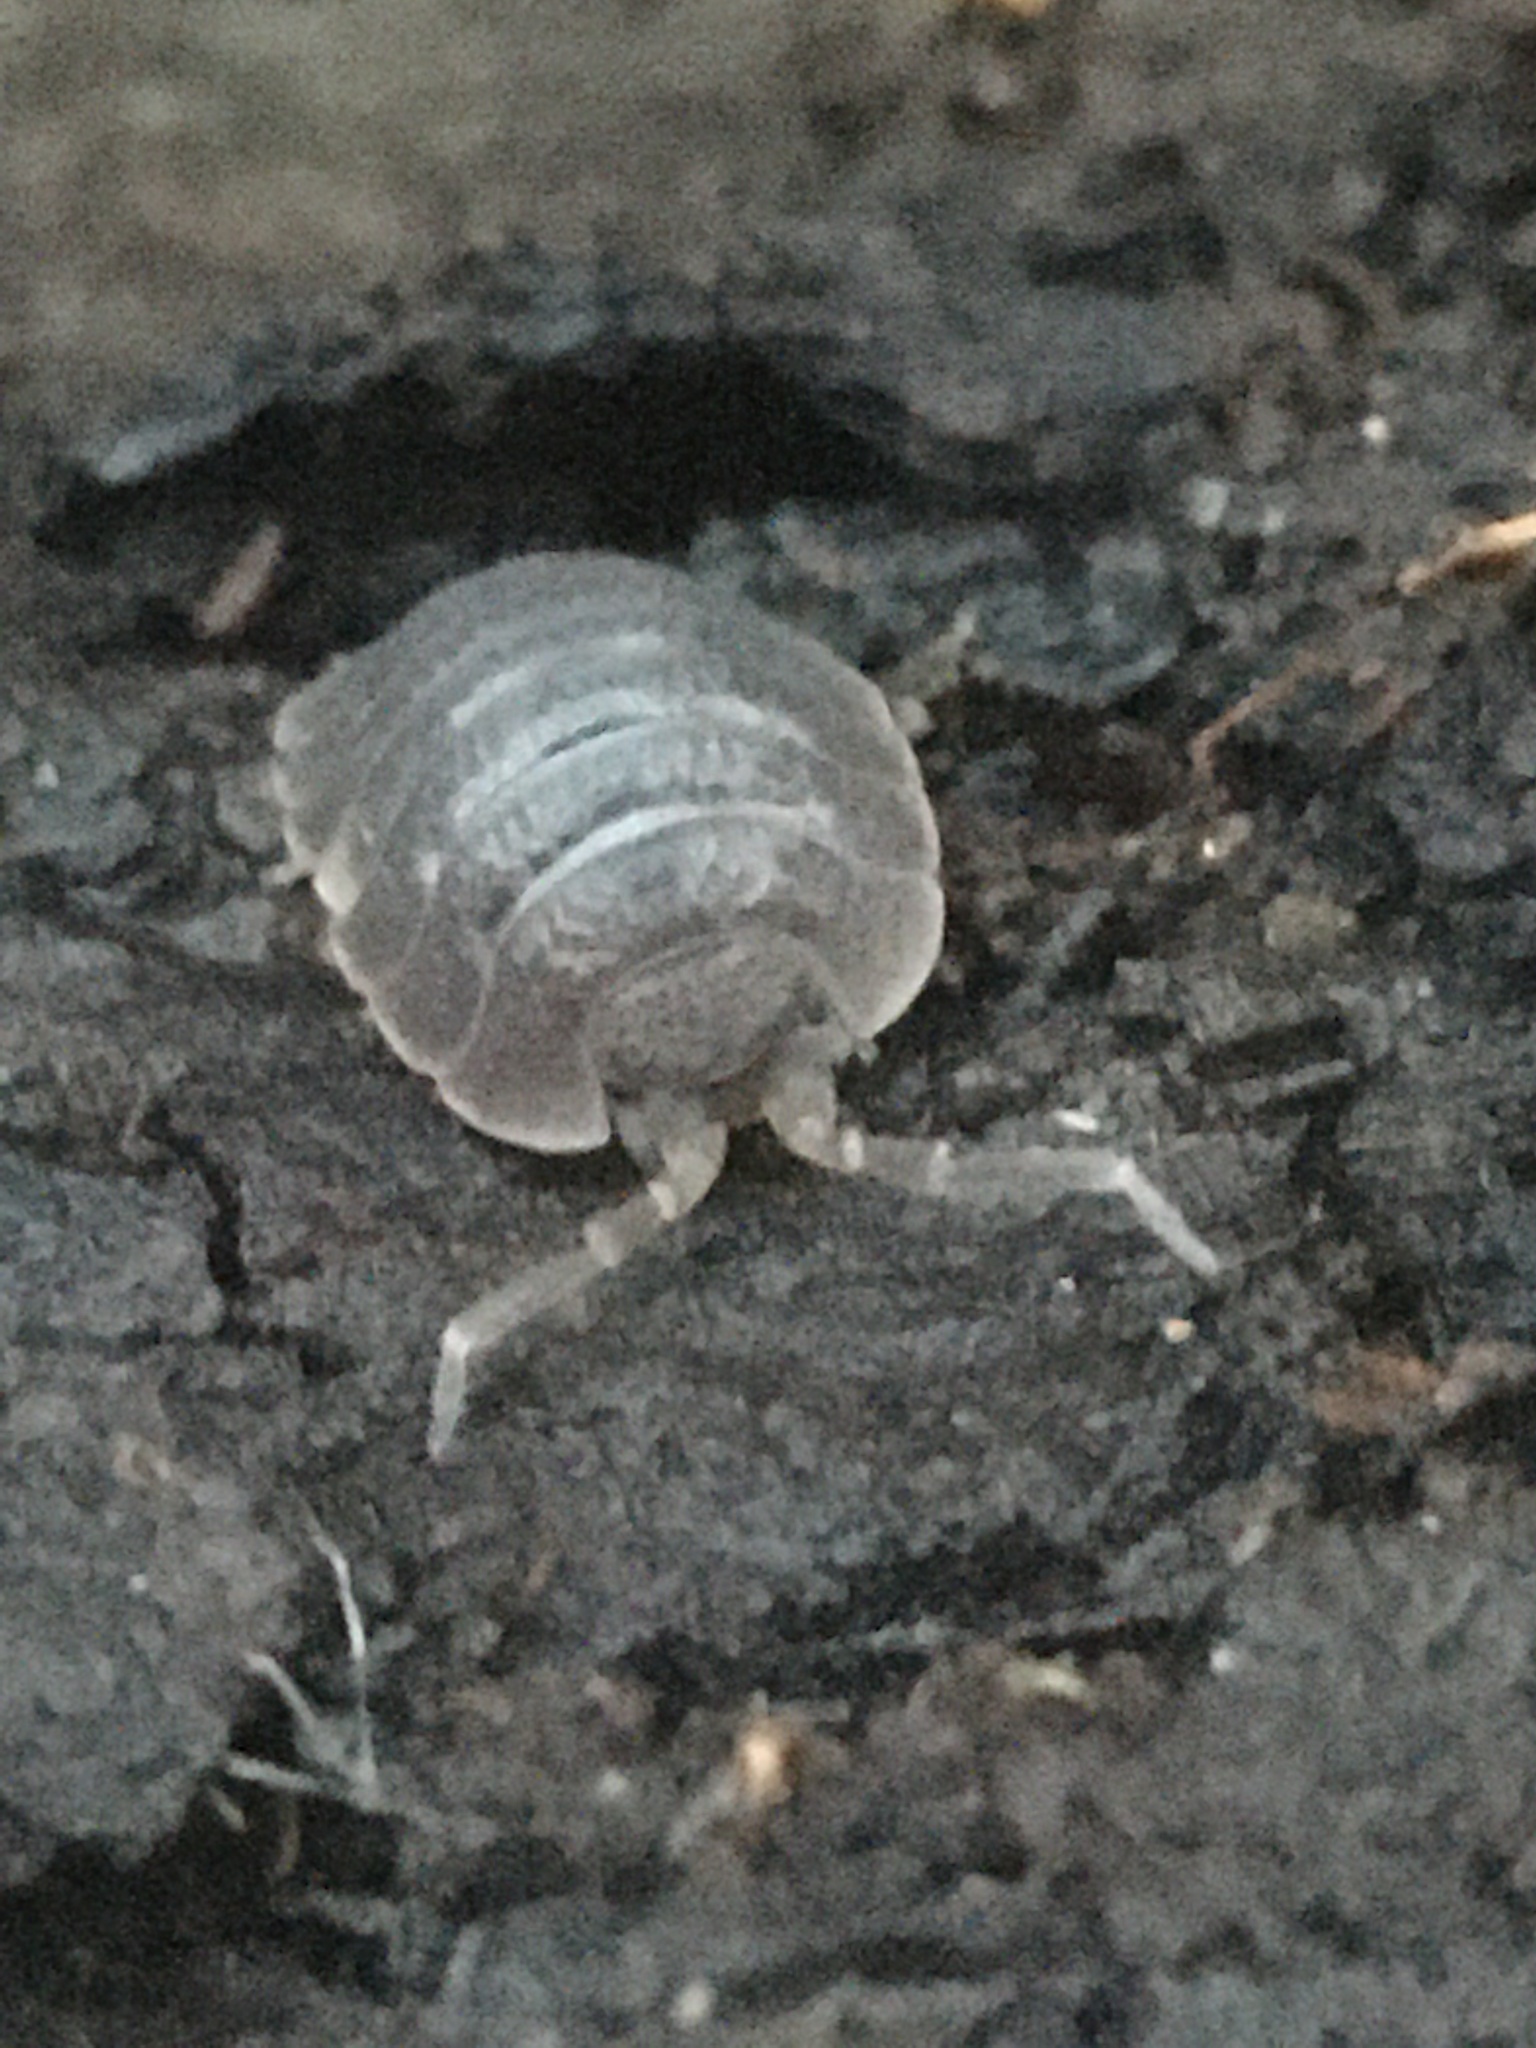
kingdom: Animalia
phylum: Arthropoda
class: Malacostraca
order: Isopoda
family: Porcellionidae
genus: Porcellio
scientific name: Porcellio dilatatus
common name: Isopod
